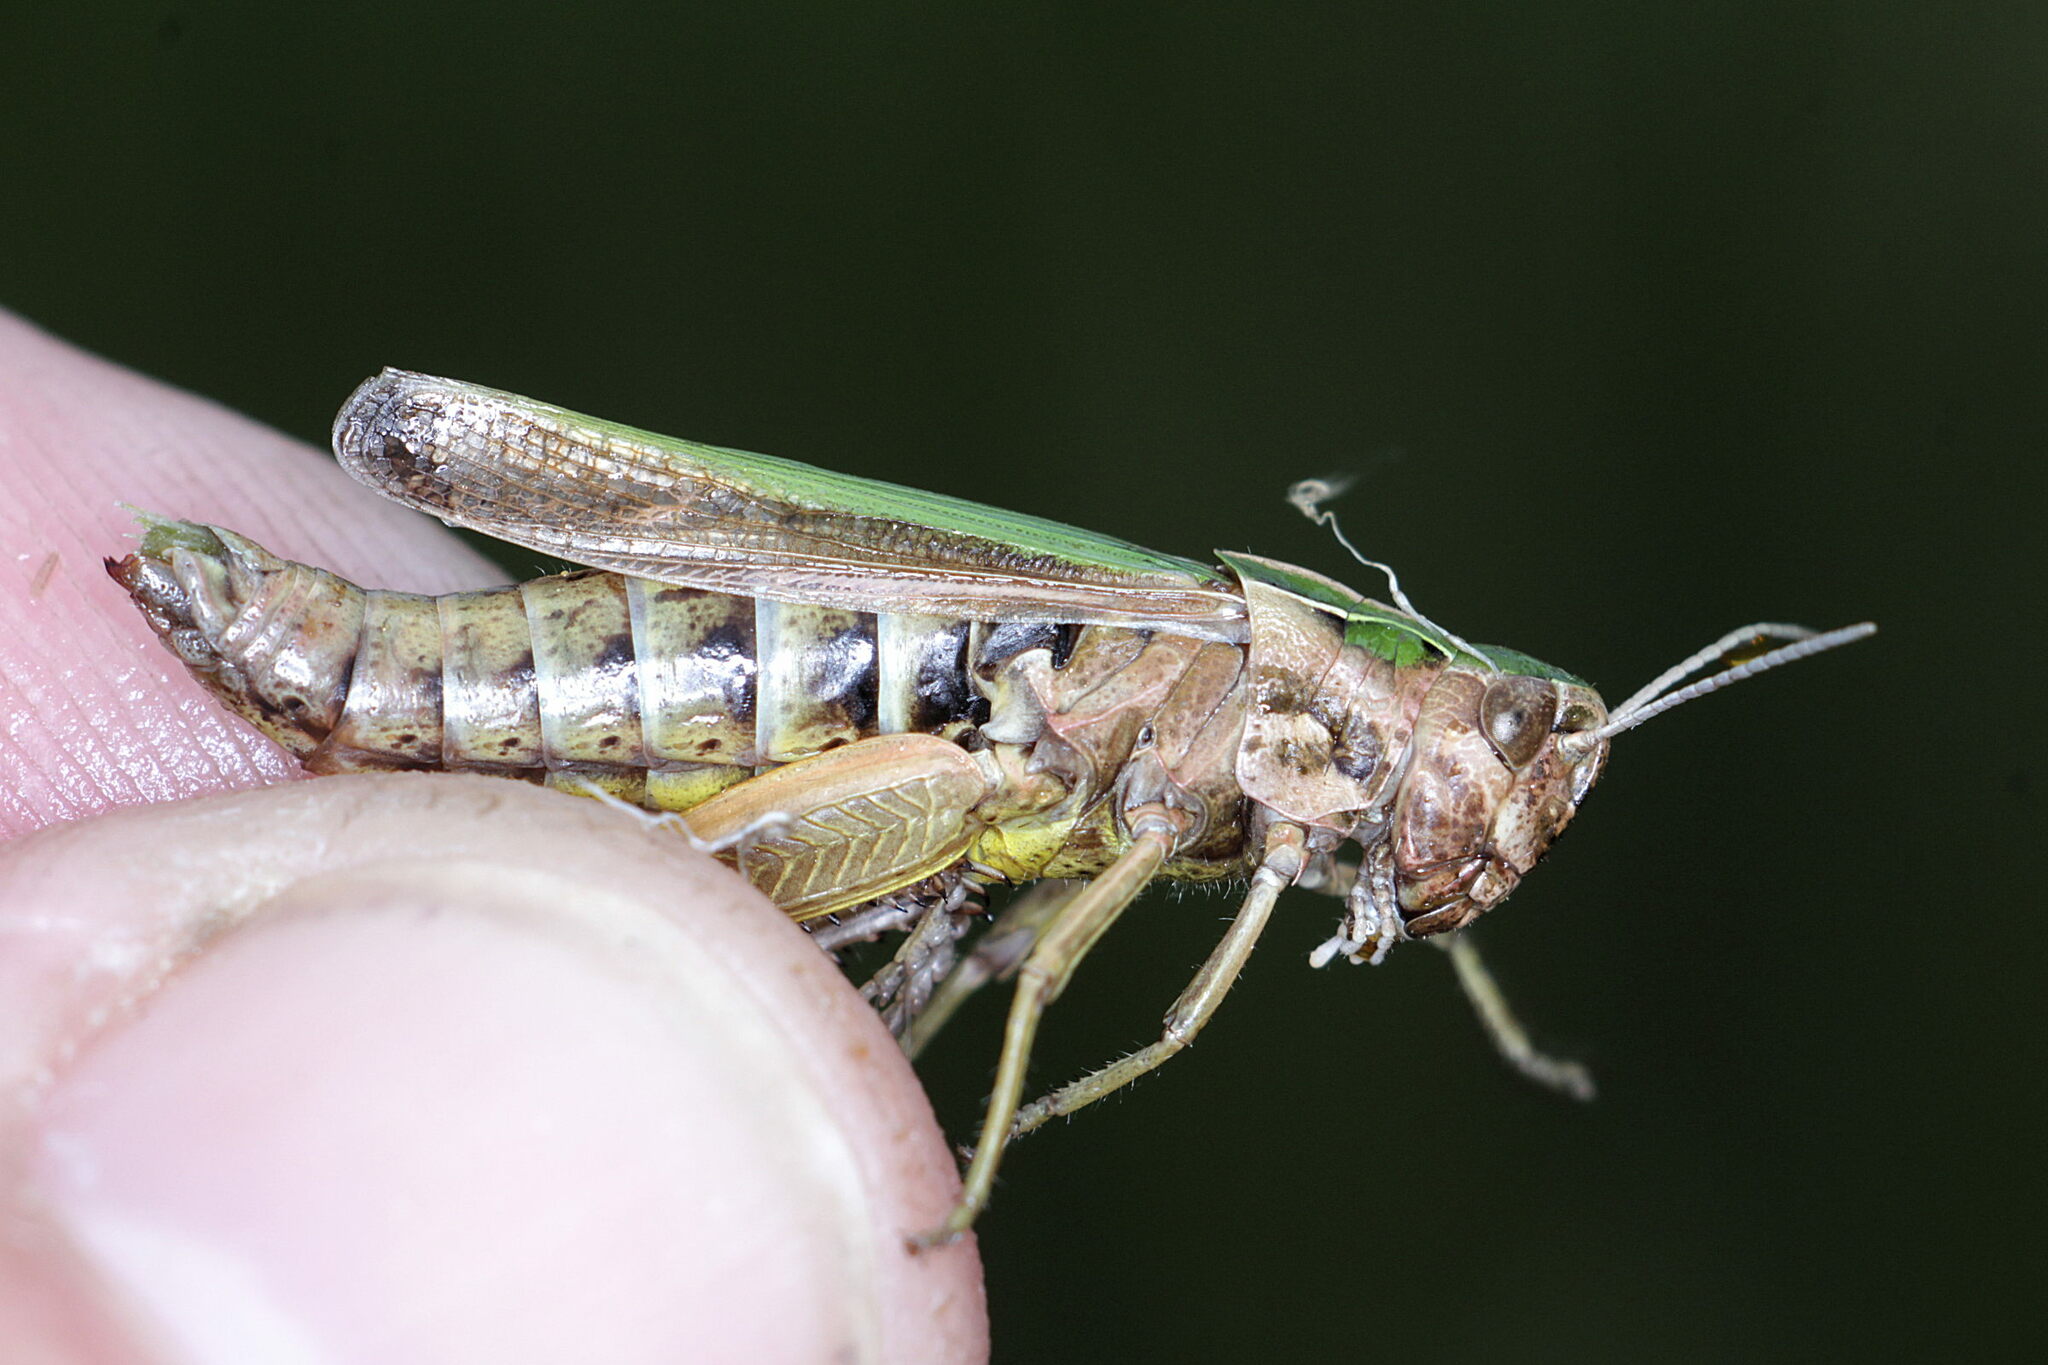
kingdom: Animalia
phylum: Arthropoda
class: Insecta
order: Orthoptera
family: Acrididae
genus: Omocestus
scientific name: Omocestus viridulus
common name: Common green grasshopper
